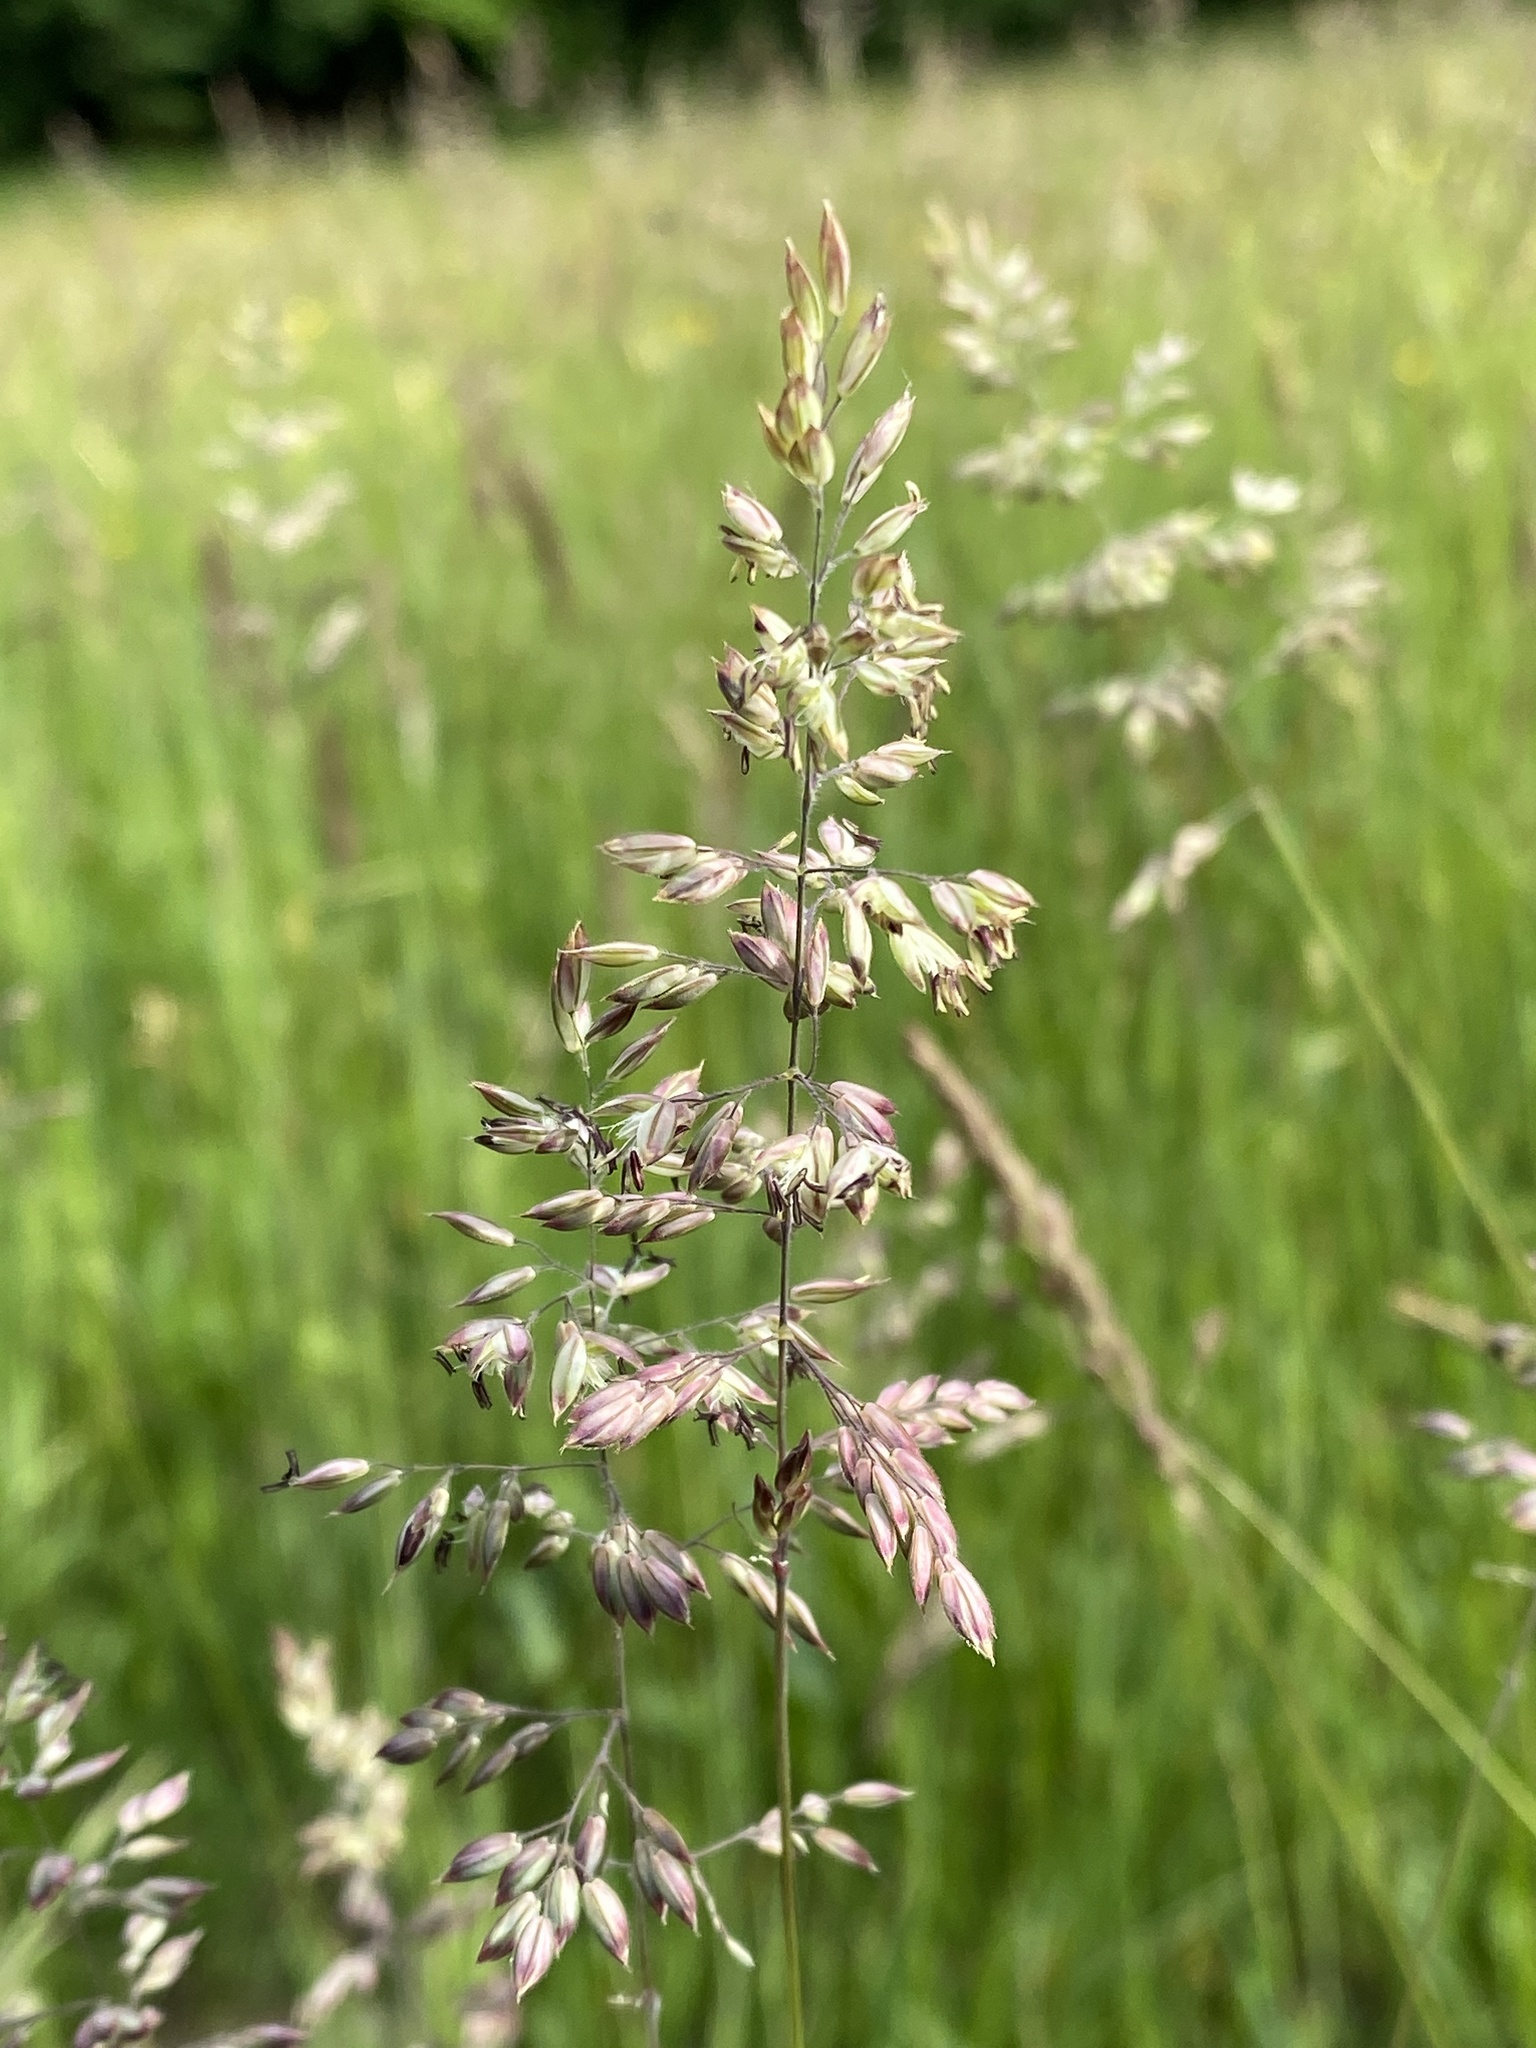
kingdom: Plantae
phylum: Tracheophyta
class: Liliopsida
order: Poales
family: Poaceae
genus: Holcus
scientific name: Holcus lanatus
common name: Yorkshire-fog
